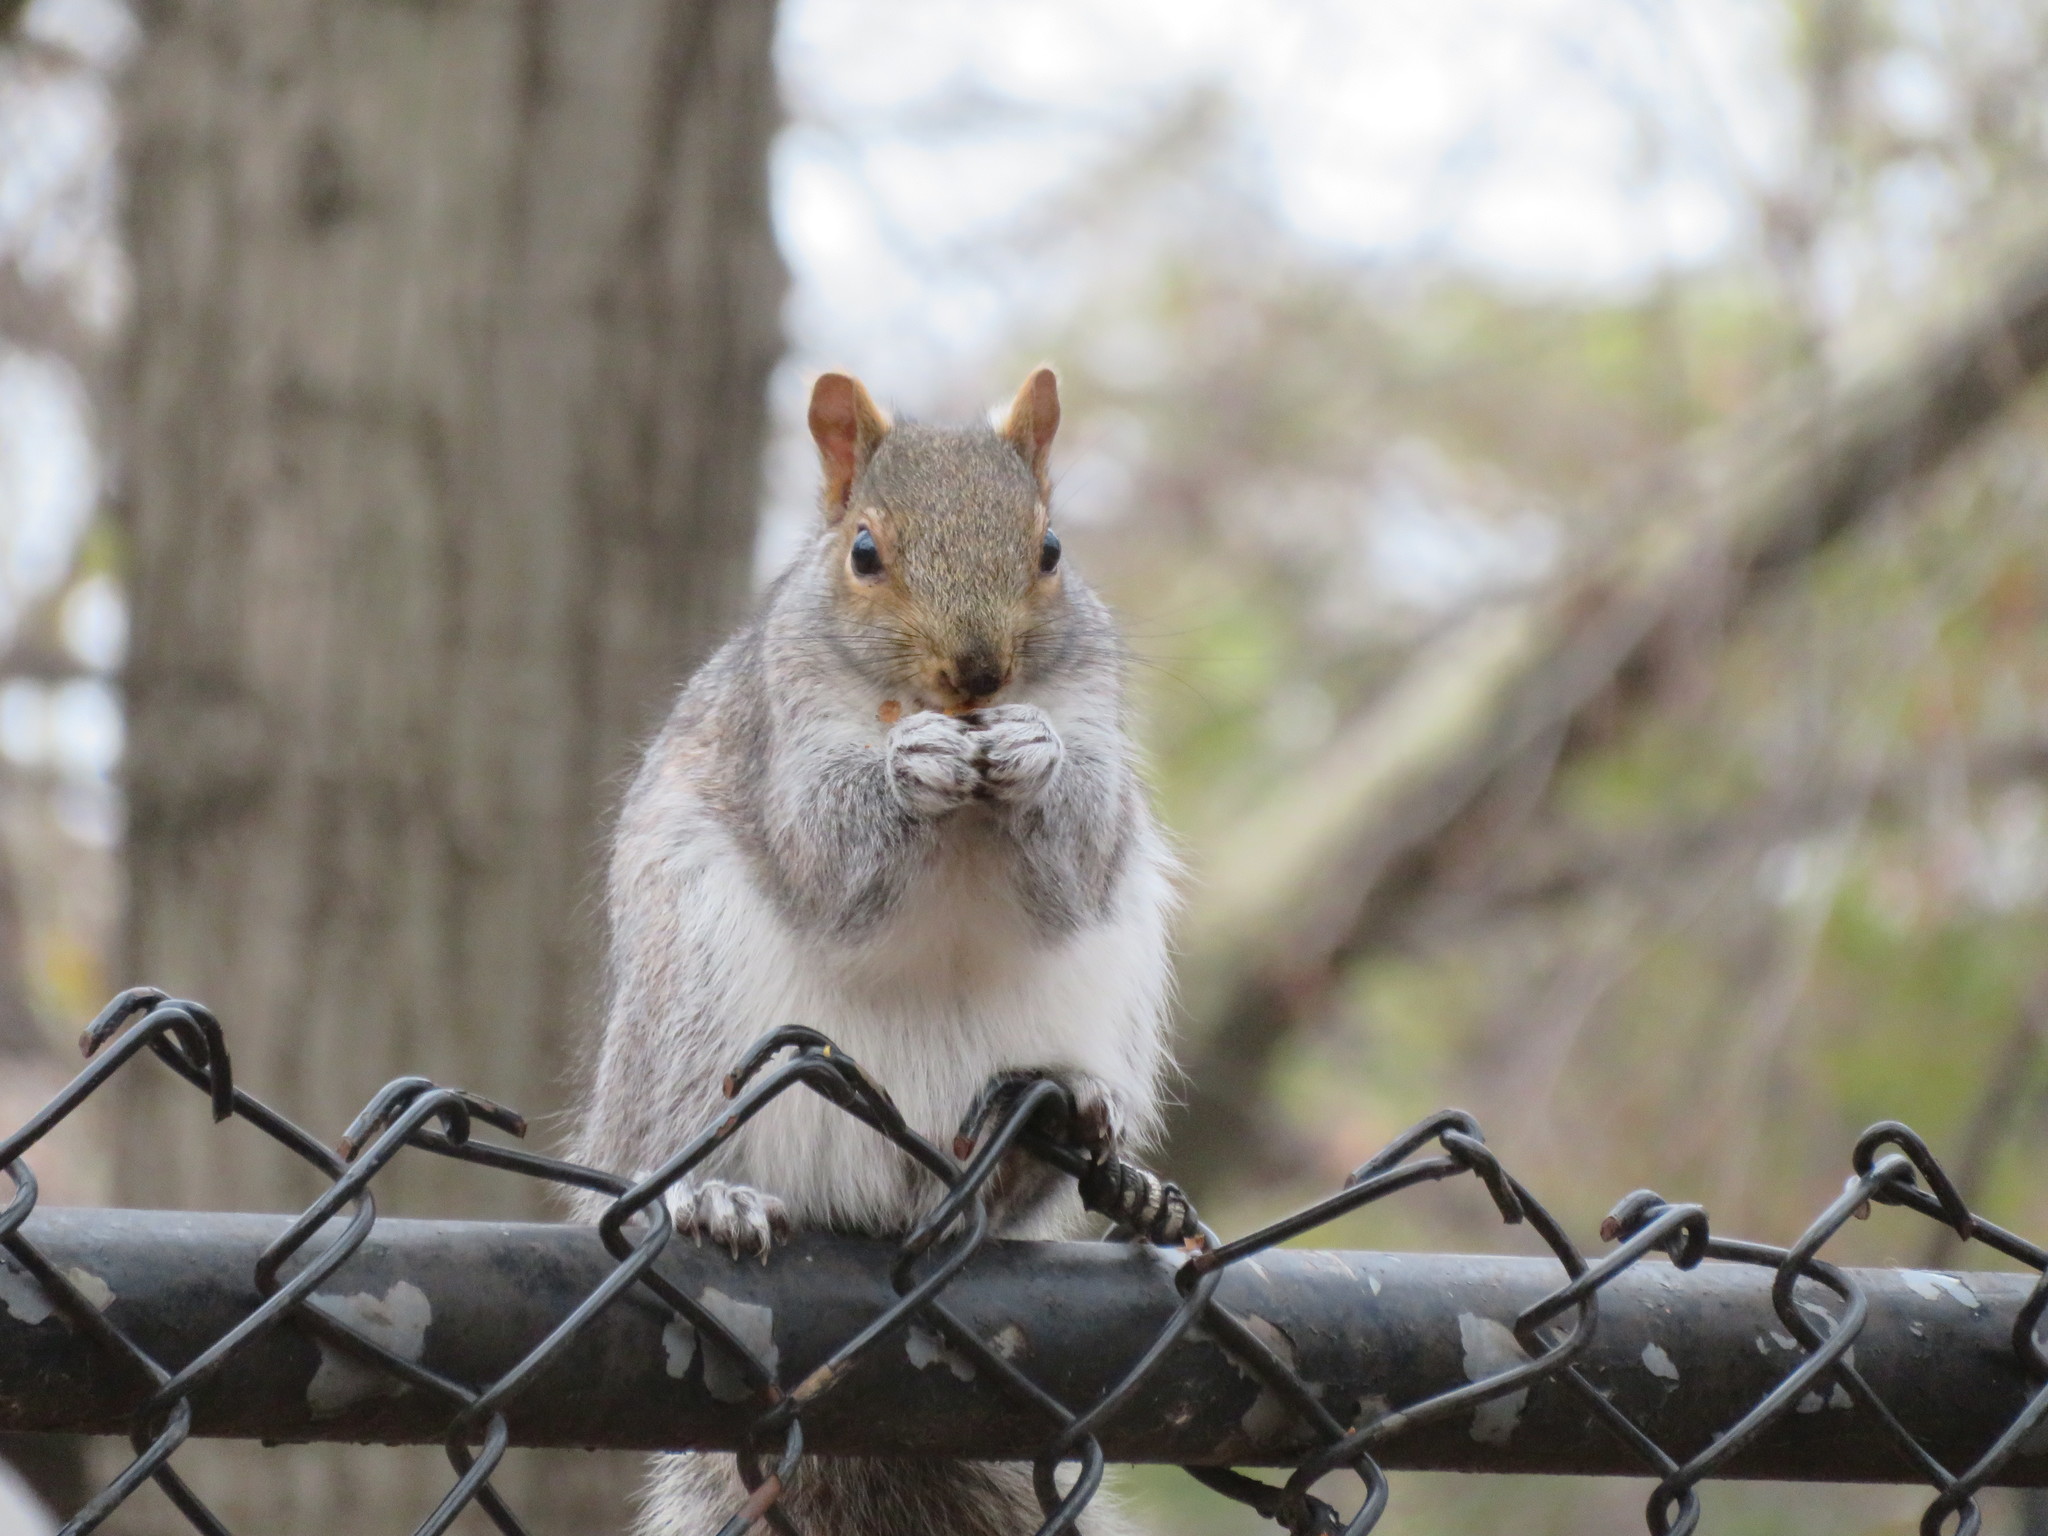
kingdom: Animalia
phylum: Chordata
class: Mammalia
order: Rodentia
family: Sciuridae
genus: Sciurus
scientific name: Sciurus carolinensis
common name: Eastern gray squirrel
